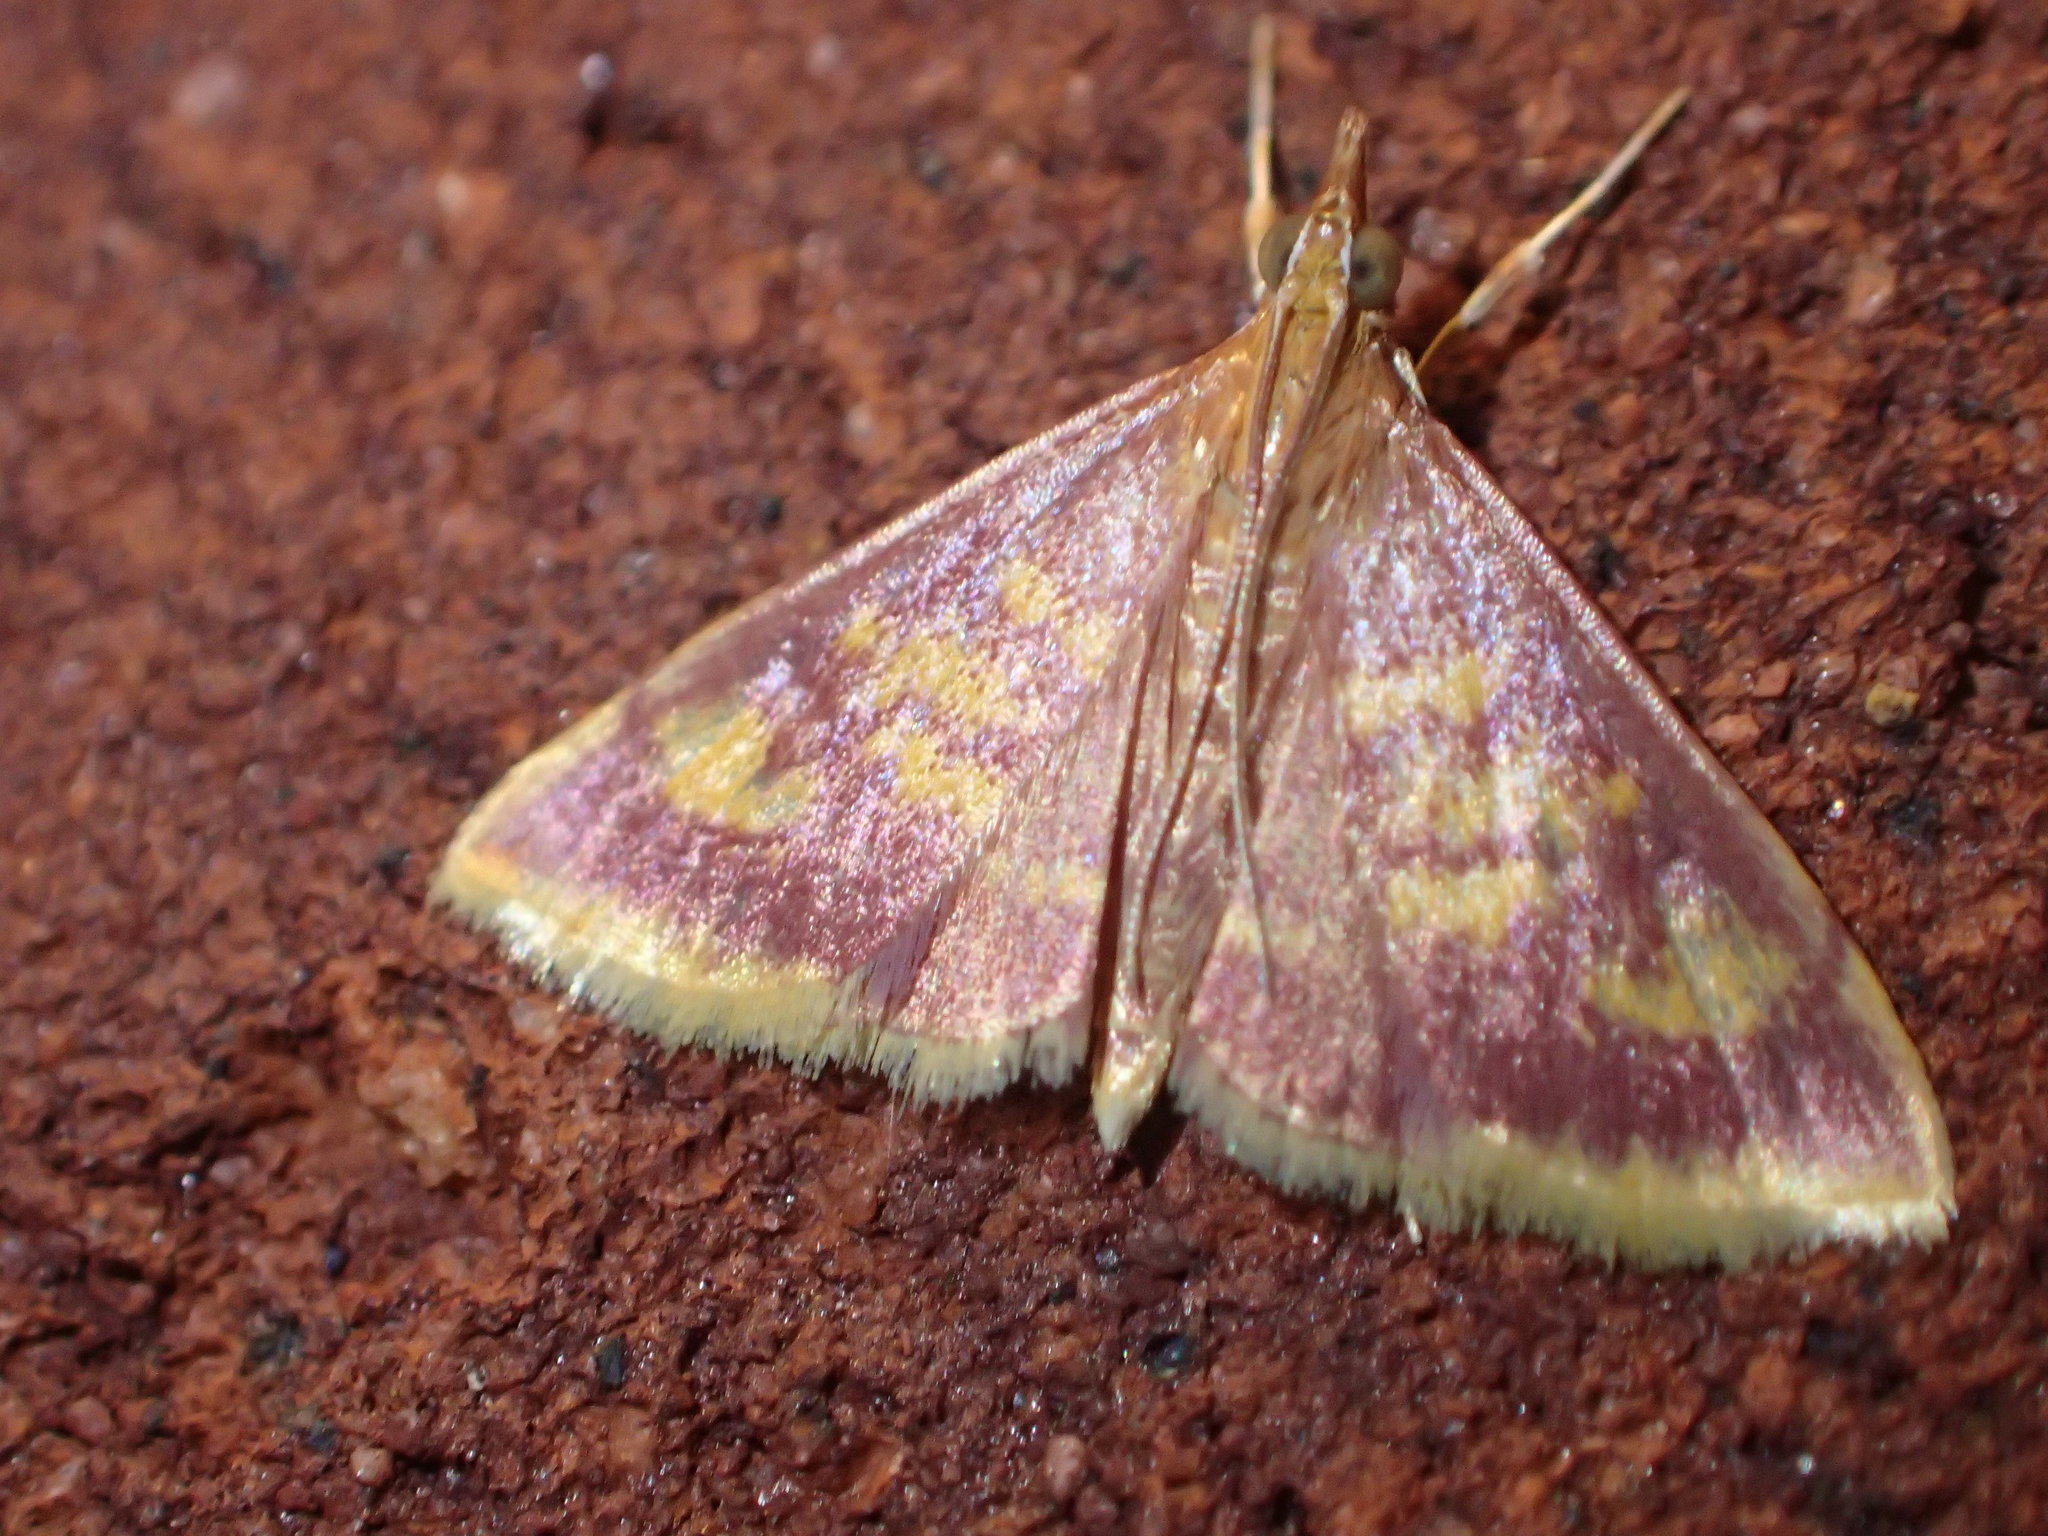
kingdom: Animalia
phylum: Arthropoda
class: Insecta
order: Lepidoptera
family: Crambidae
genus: Pyrausta
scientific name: Pyrausta acrionalis
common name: Mint-loving pyrausta moth
